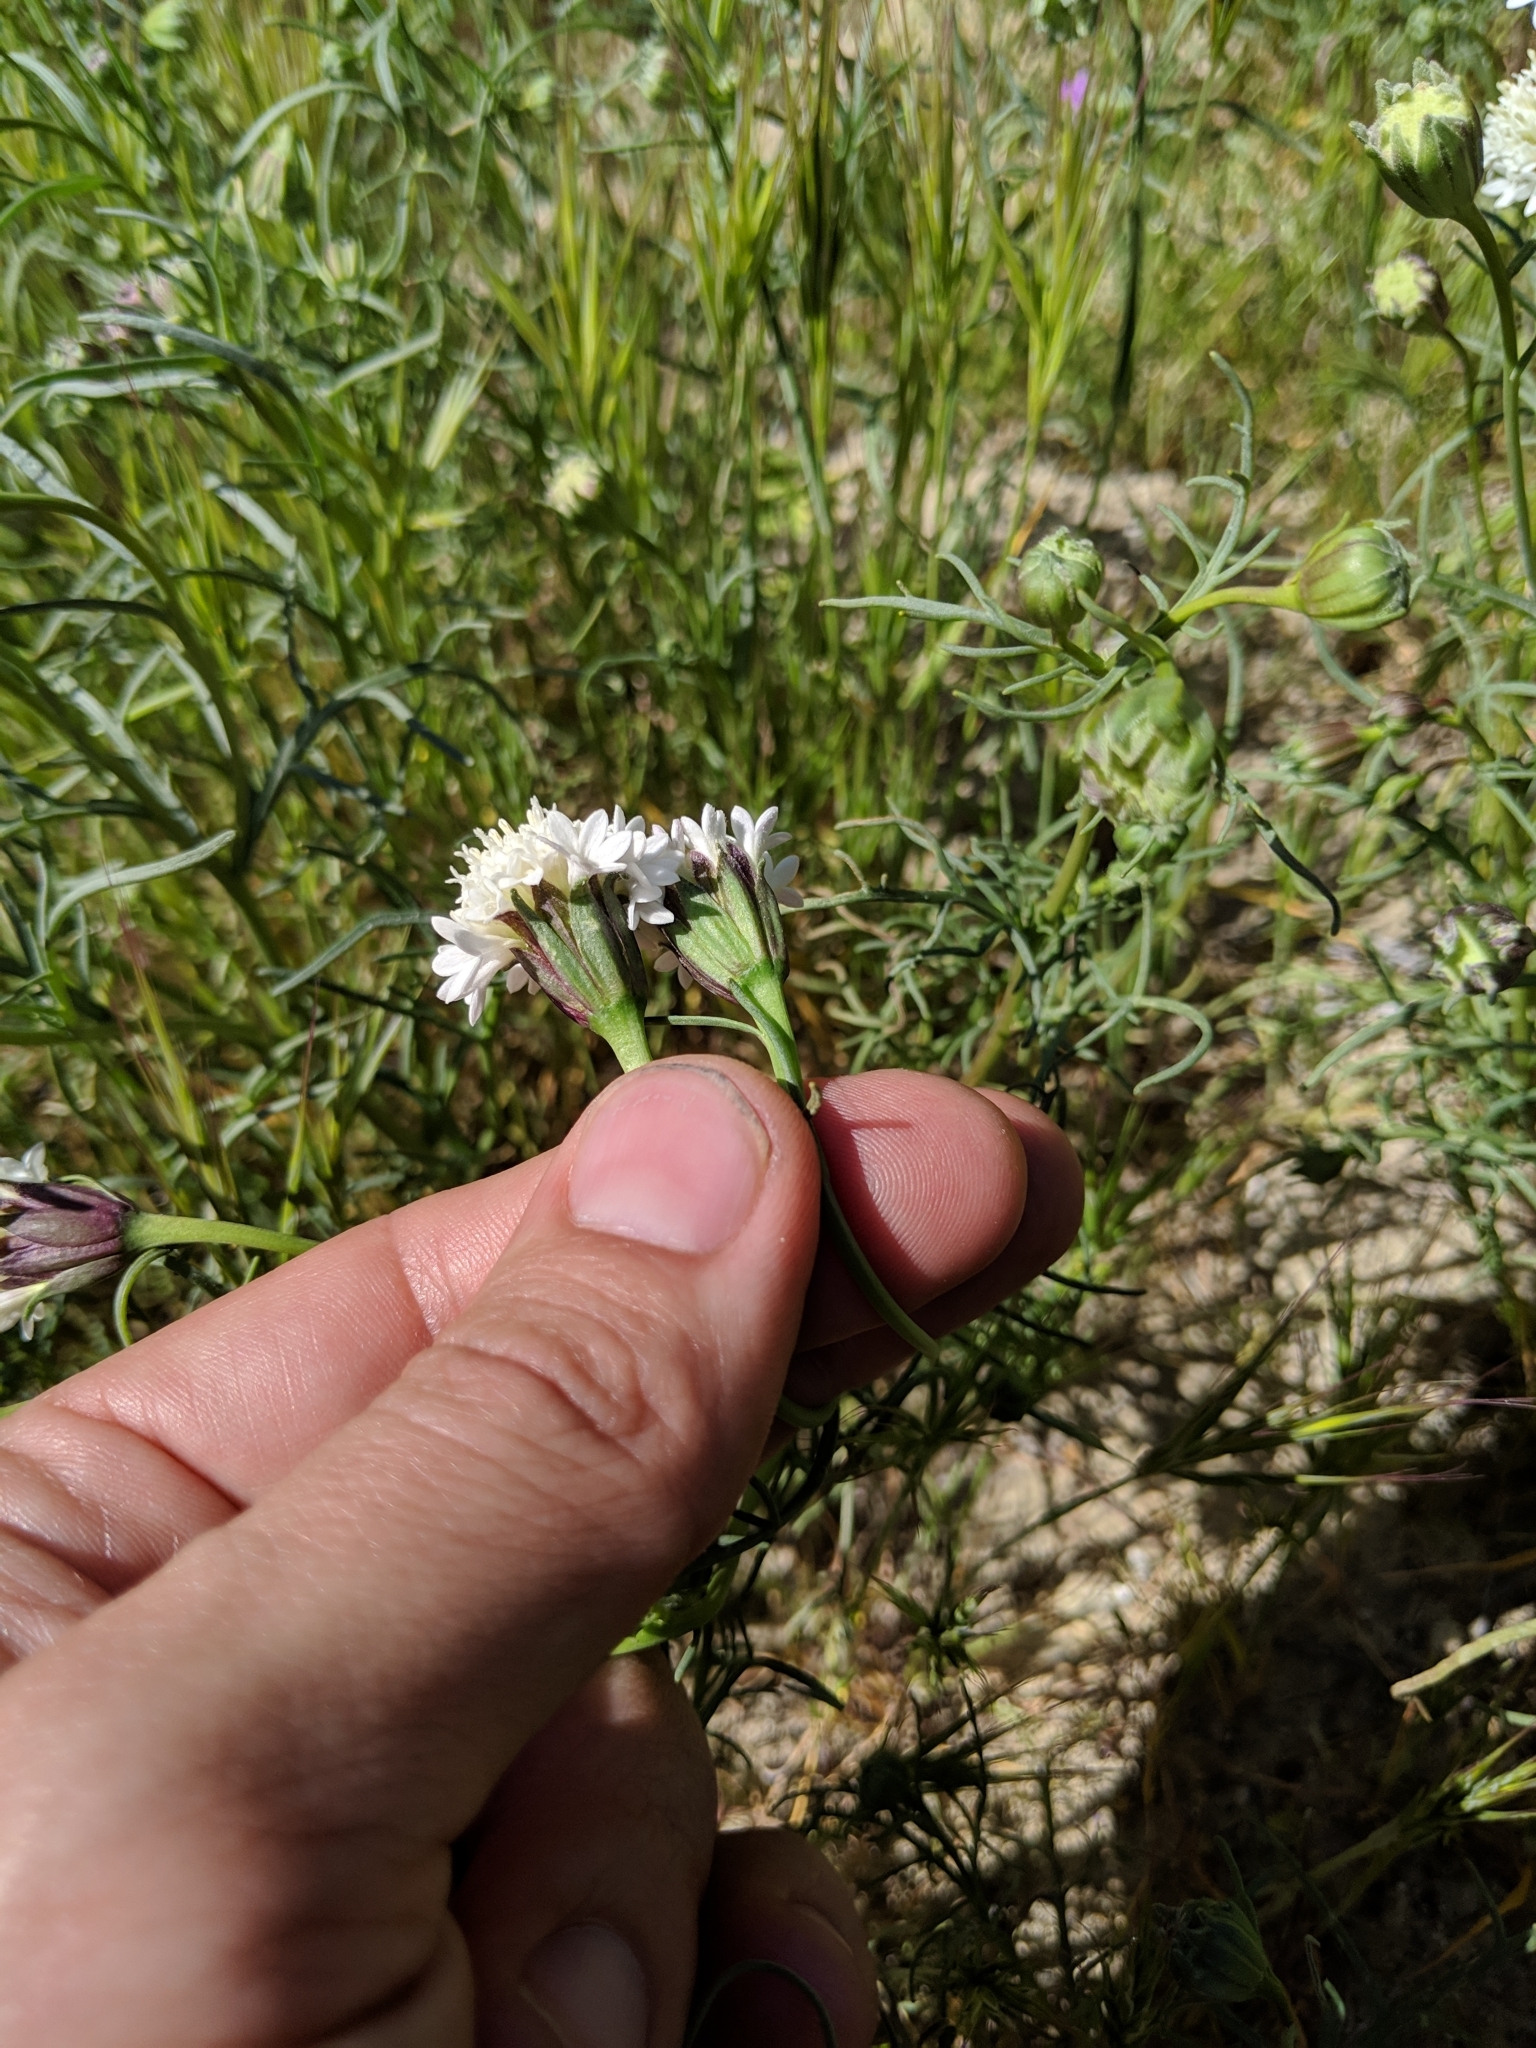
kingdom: Plantae
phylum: Tracheophyta
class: Magnoliopsida
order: Asterales
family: Asteraceae
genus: Chaenactis
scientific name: Chaenactis fremontii
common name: Fremont pincushion
